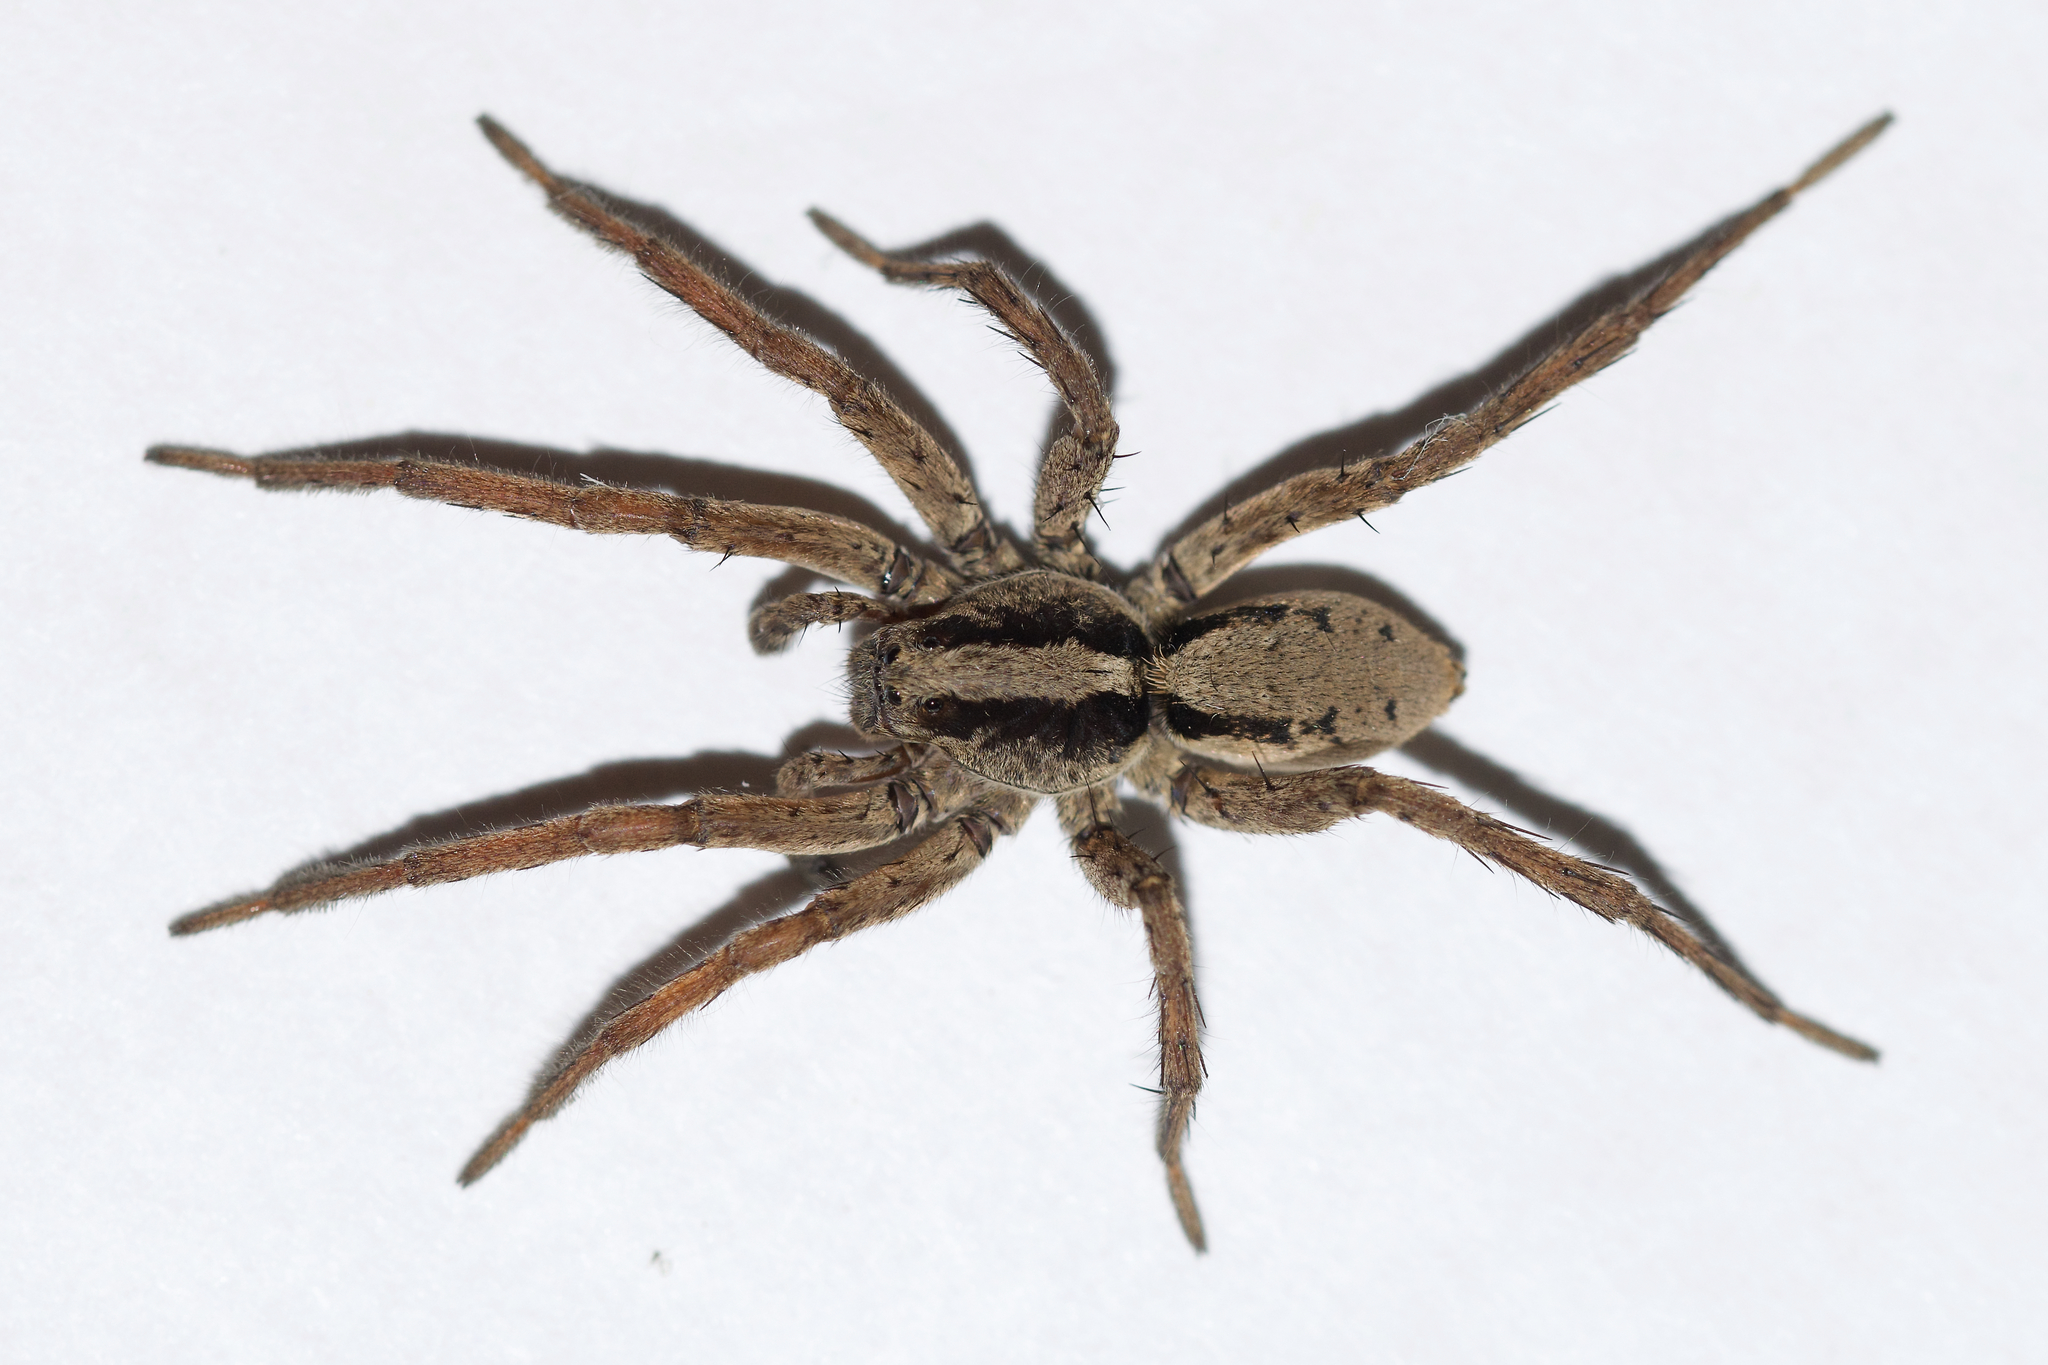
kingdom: Animalia
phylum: Arthropoda
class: Arachnida
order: Araneae
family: Lycosidae
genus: Gladicosa
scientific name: Gladicosa gulosa
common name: Drumming sword wolf spider
